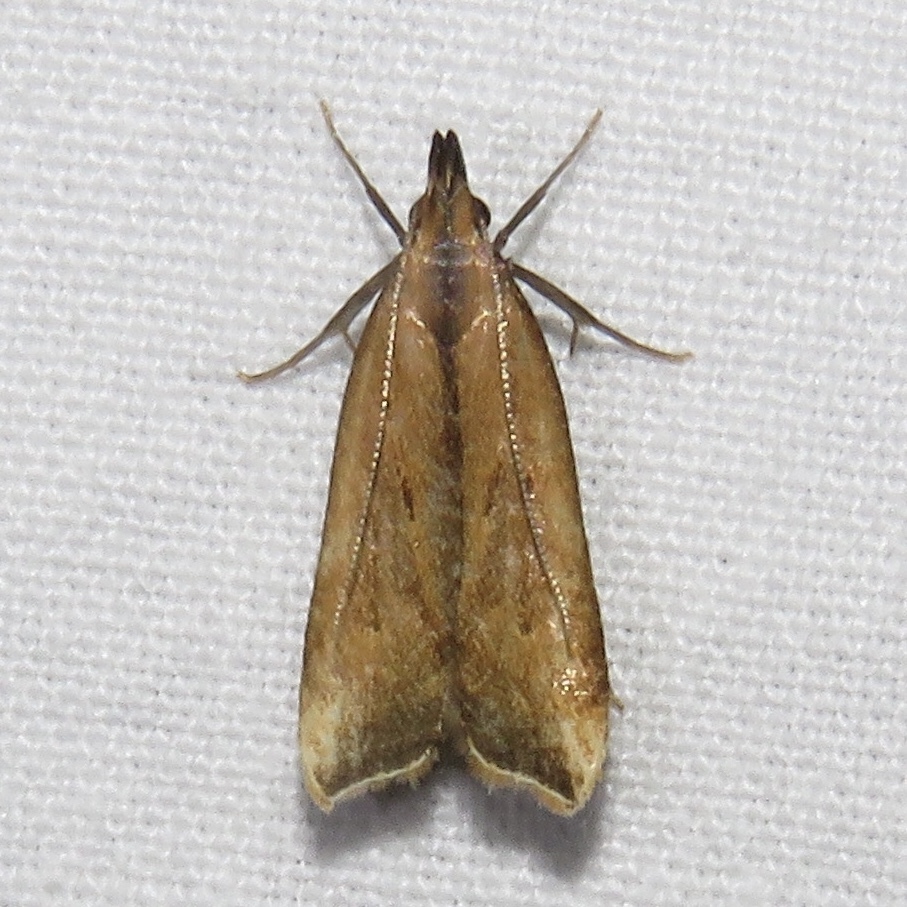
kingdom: Animalia
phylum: Arthropoda
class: Insecta
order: Lepidoptera
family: Gelechiidae
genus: Dichomeris
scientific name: Dichomeris heriguronis
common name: Black-edged dichomeris moth
